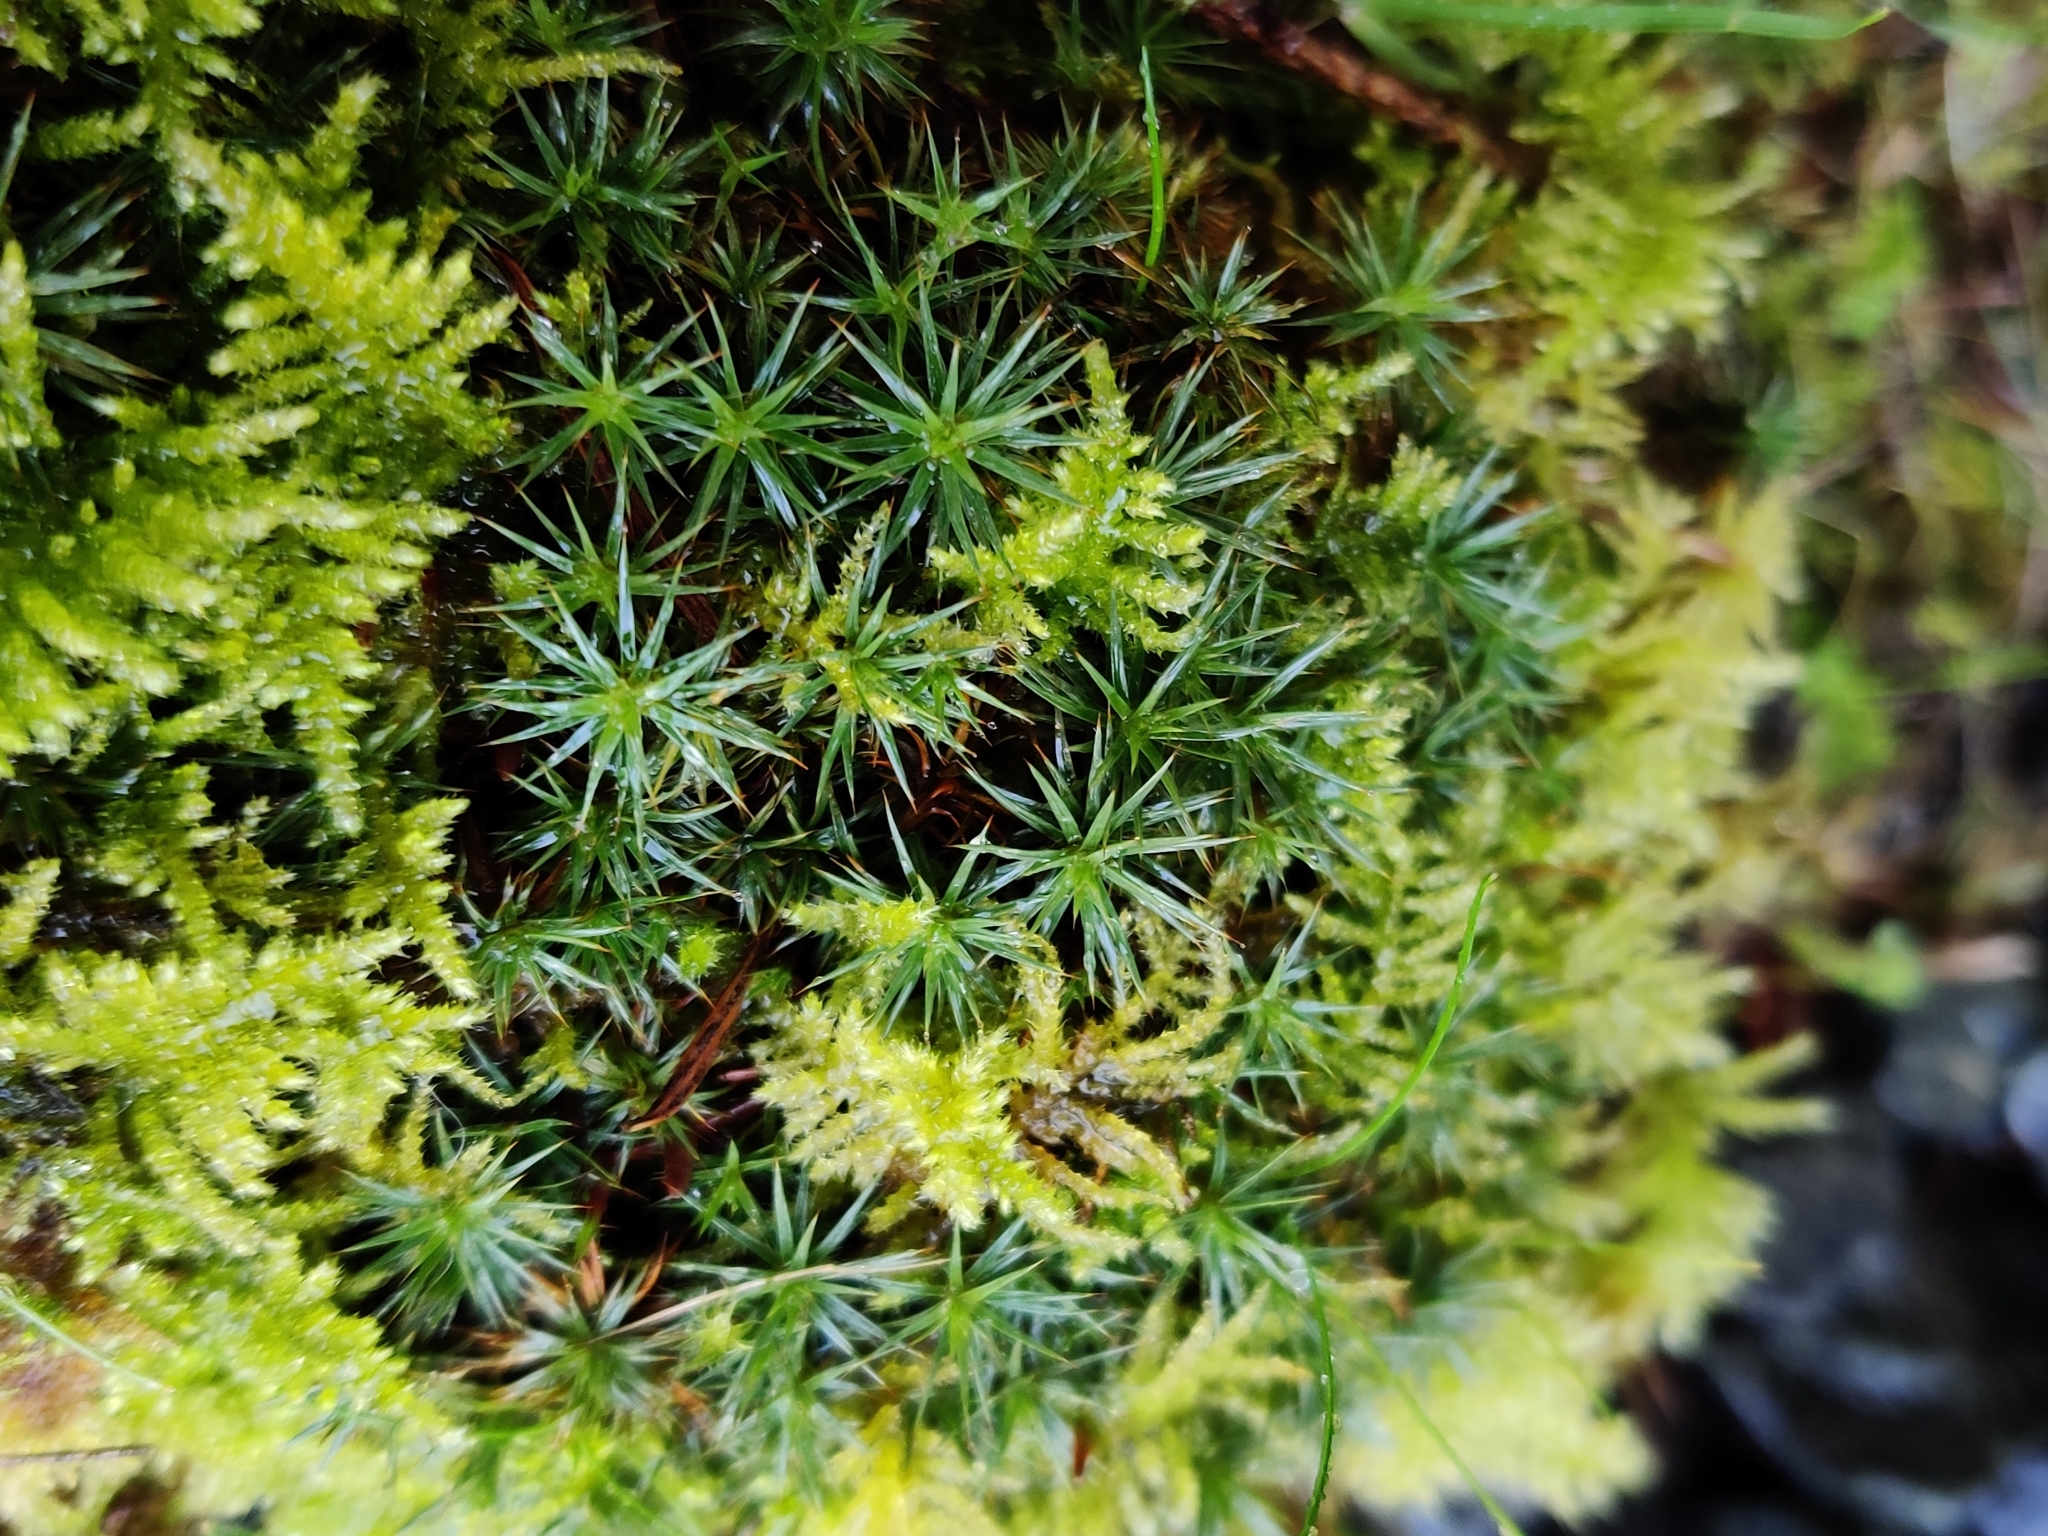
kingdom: Plantae
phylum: Bryophyta
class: Polytrichopsida
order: Polytrichales
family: Polytrichaceae
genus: Polytrichum
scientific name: Polytrichum juniperinum
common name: Juniper haircap moss
